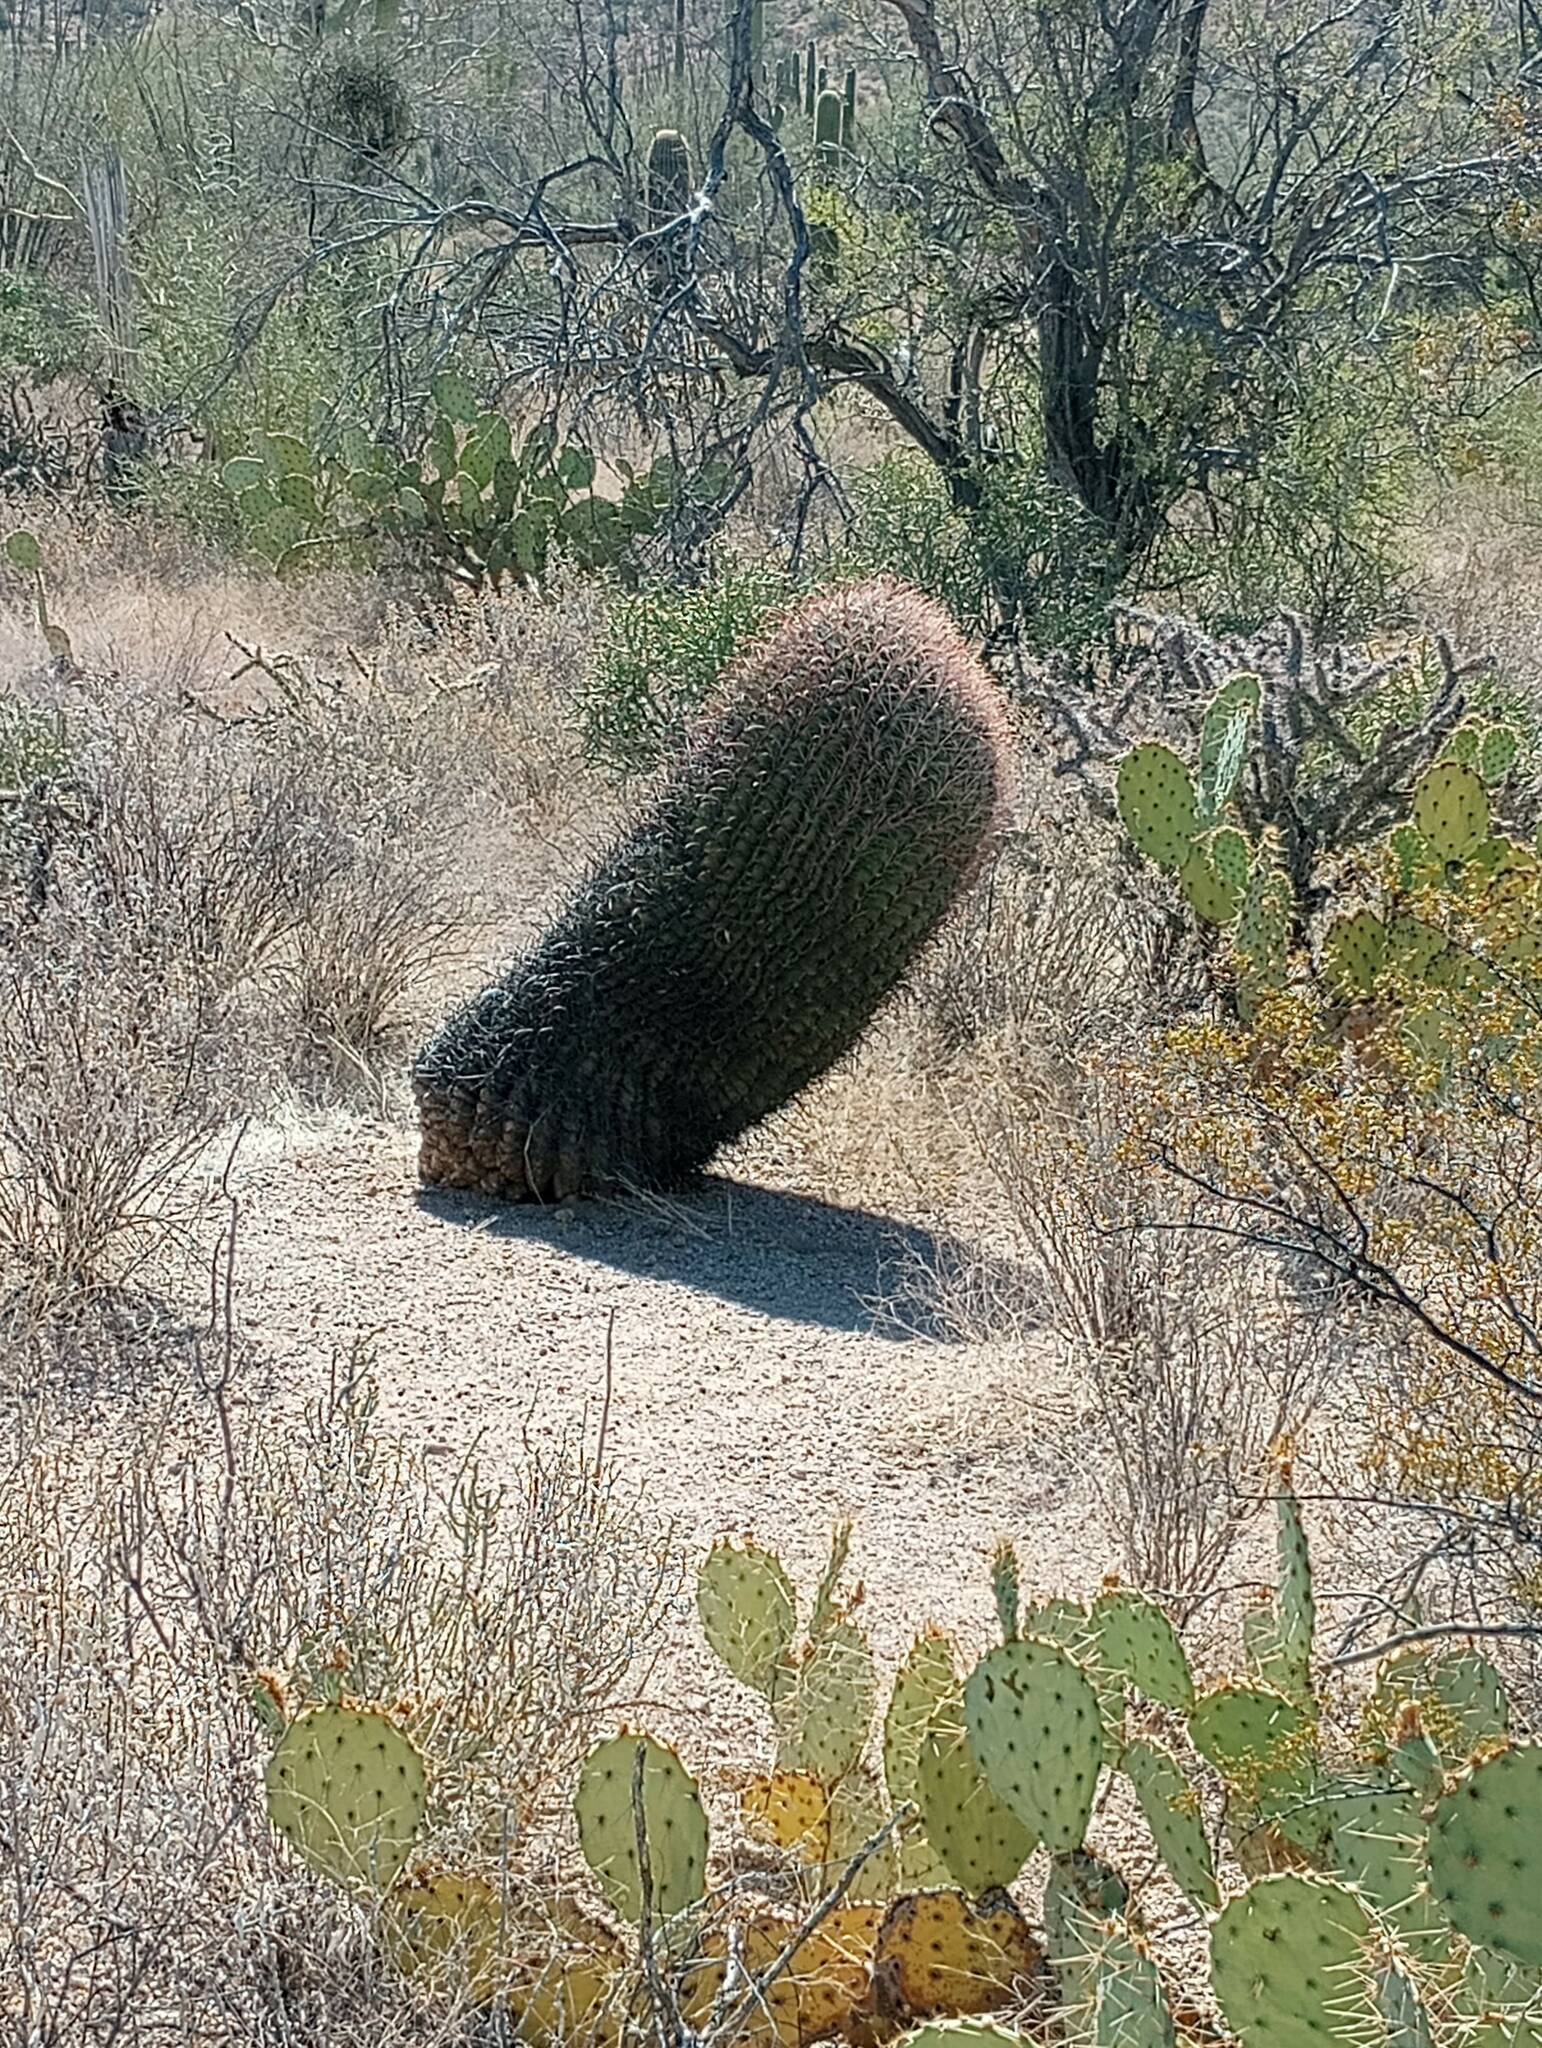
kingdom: Plantae
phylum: Tracheophyta
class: Magnoliopsida
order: Caryophyllales
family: Cactaceae
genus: Ferocactus
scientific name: Ferocactus wislizeni
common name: Candy barrel cactus
